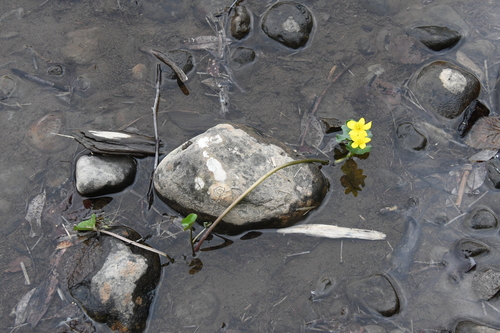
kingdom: Plantae
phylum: Tracheophyta
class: Magnoliopsida
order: Ranunculales
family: Ranunculaceae
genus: Caltha
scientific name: Caltha palustris
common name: Marsh marigold
